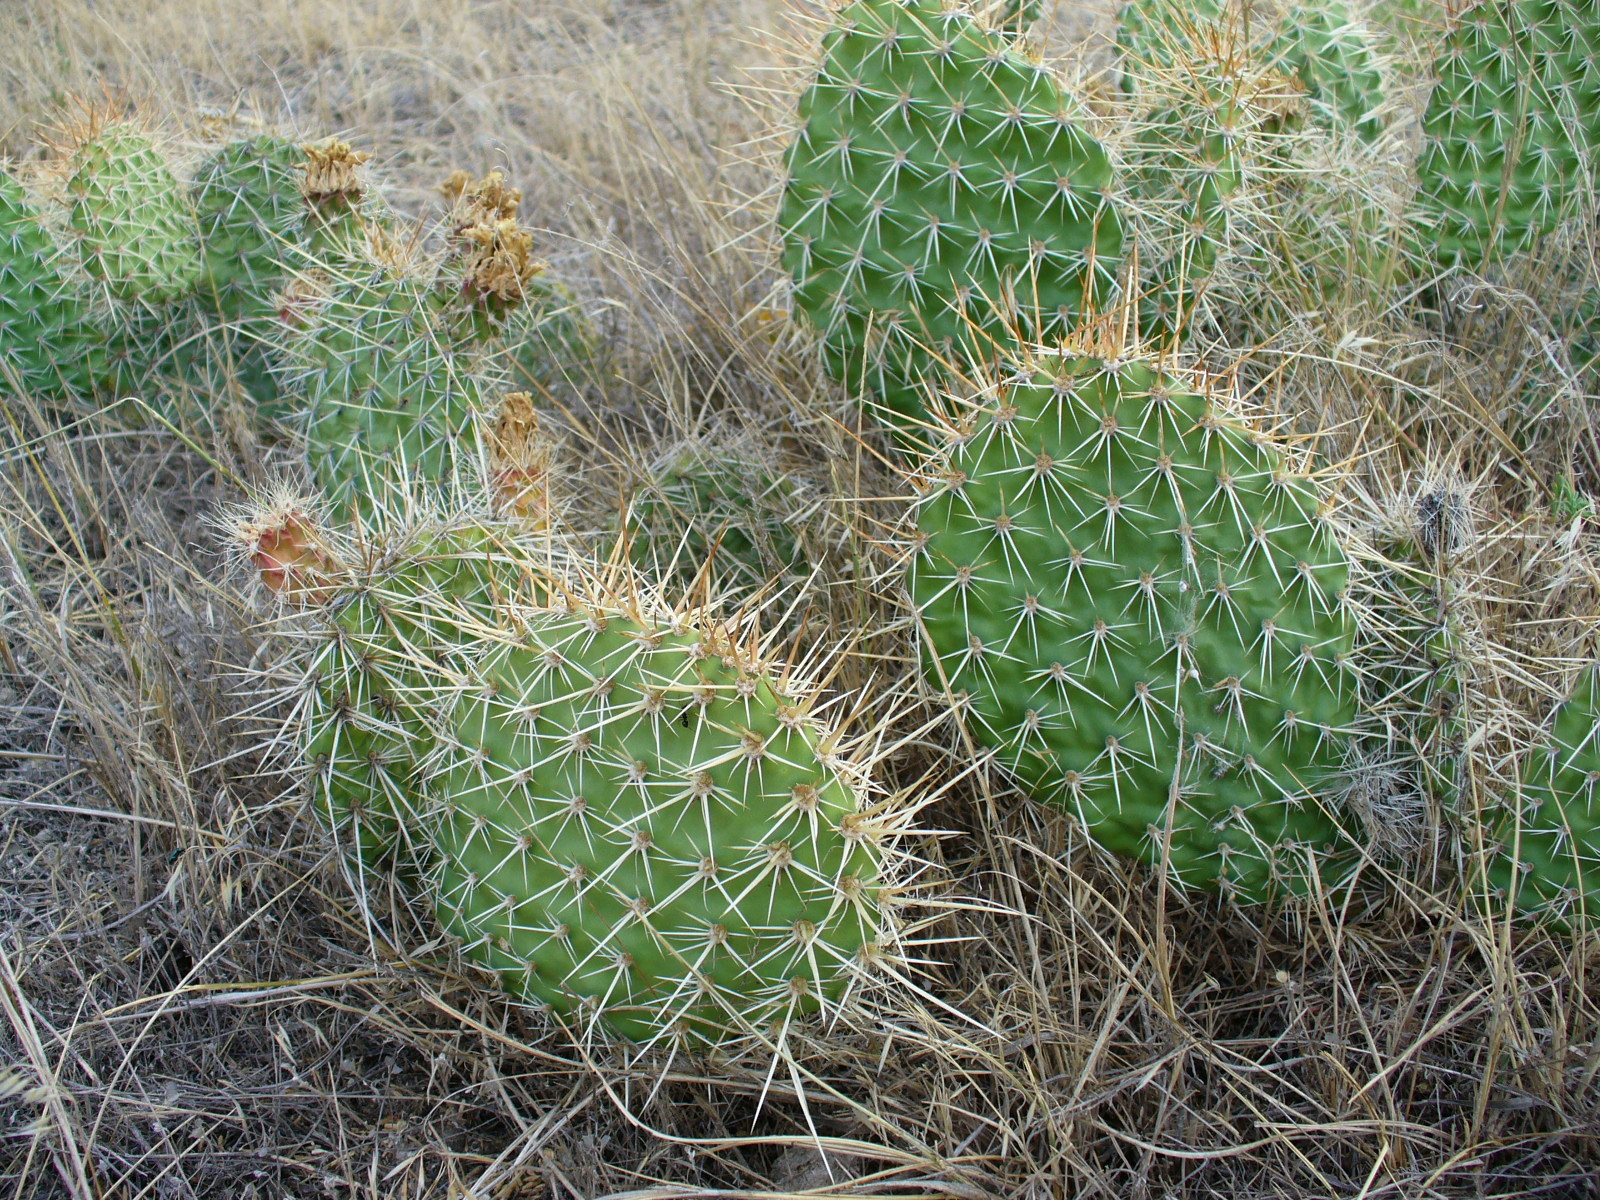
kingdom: Plantae
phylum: Tracheophyta
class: Magnoliopsida
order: Caryophyllales
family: Cactaceae
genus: Opuntia
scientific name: Opuntia polyacantha
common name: Plains prickly-pear
